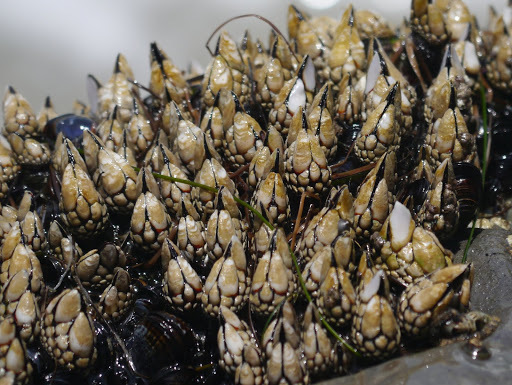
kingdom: Animalia
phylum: Arthropoda
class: Maxillopoda
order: Pedunculata
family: Pollicipedidae
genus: Pollicipes
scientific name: Pollicipes polymerus
